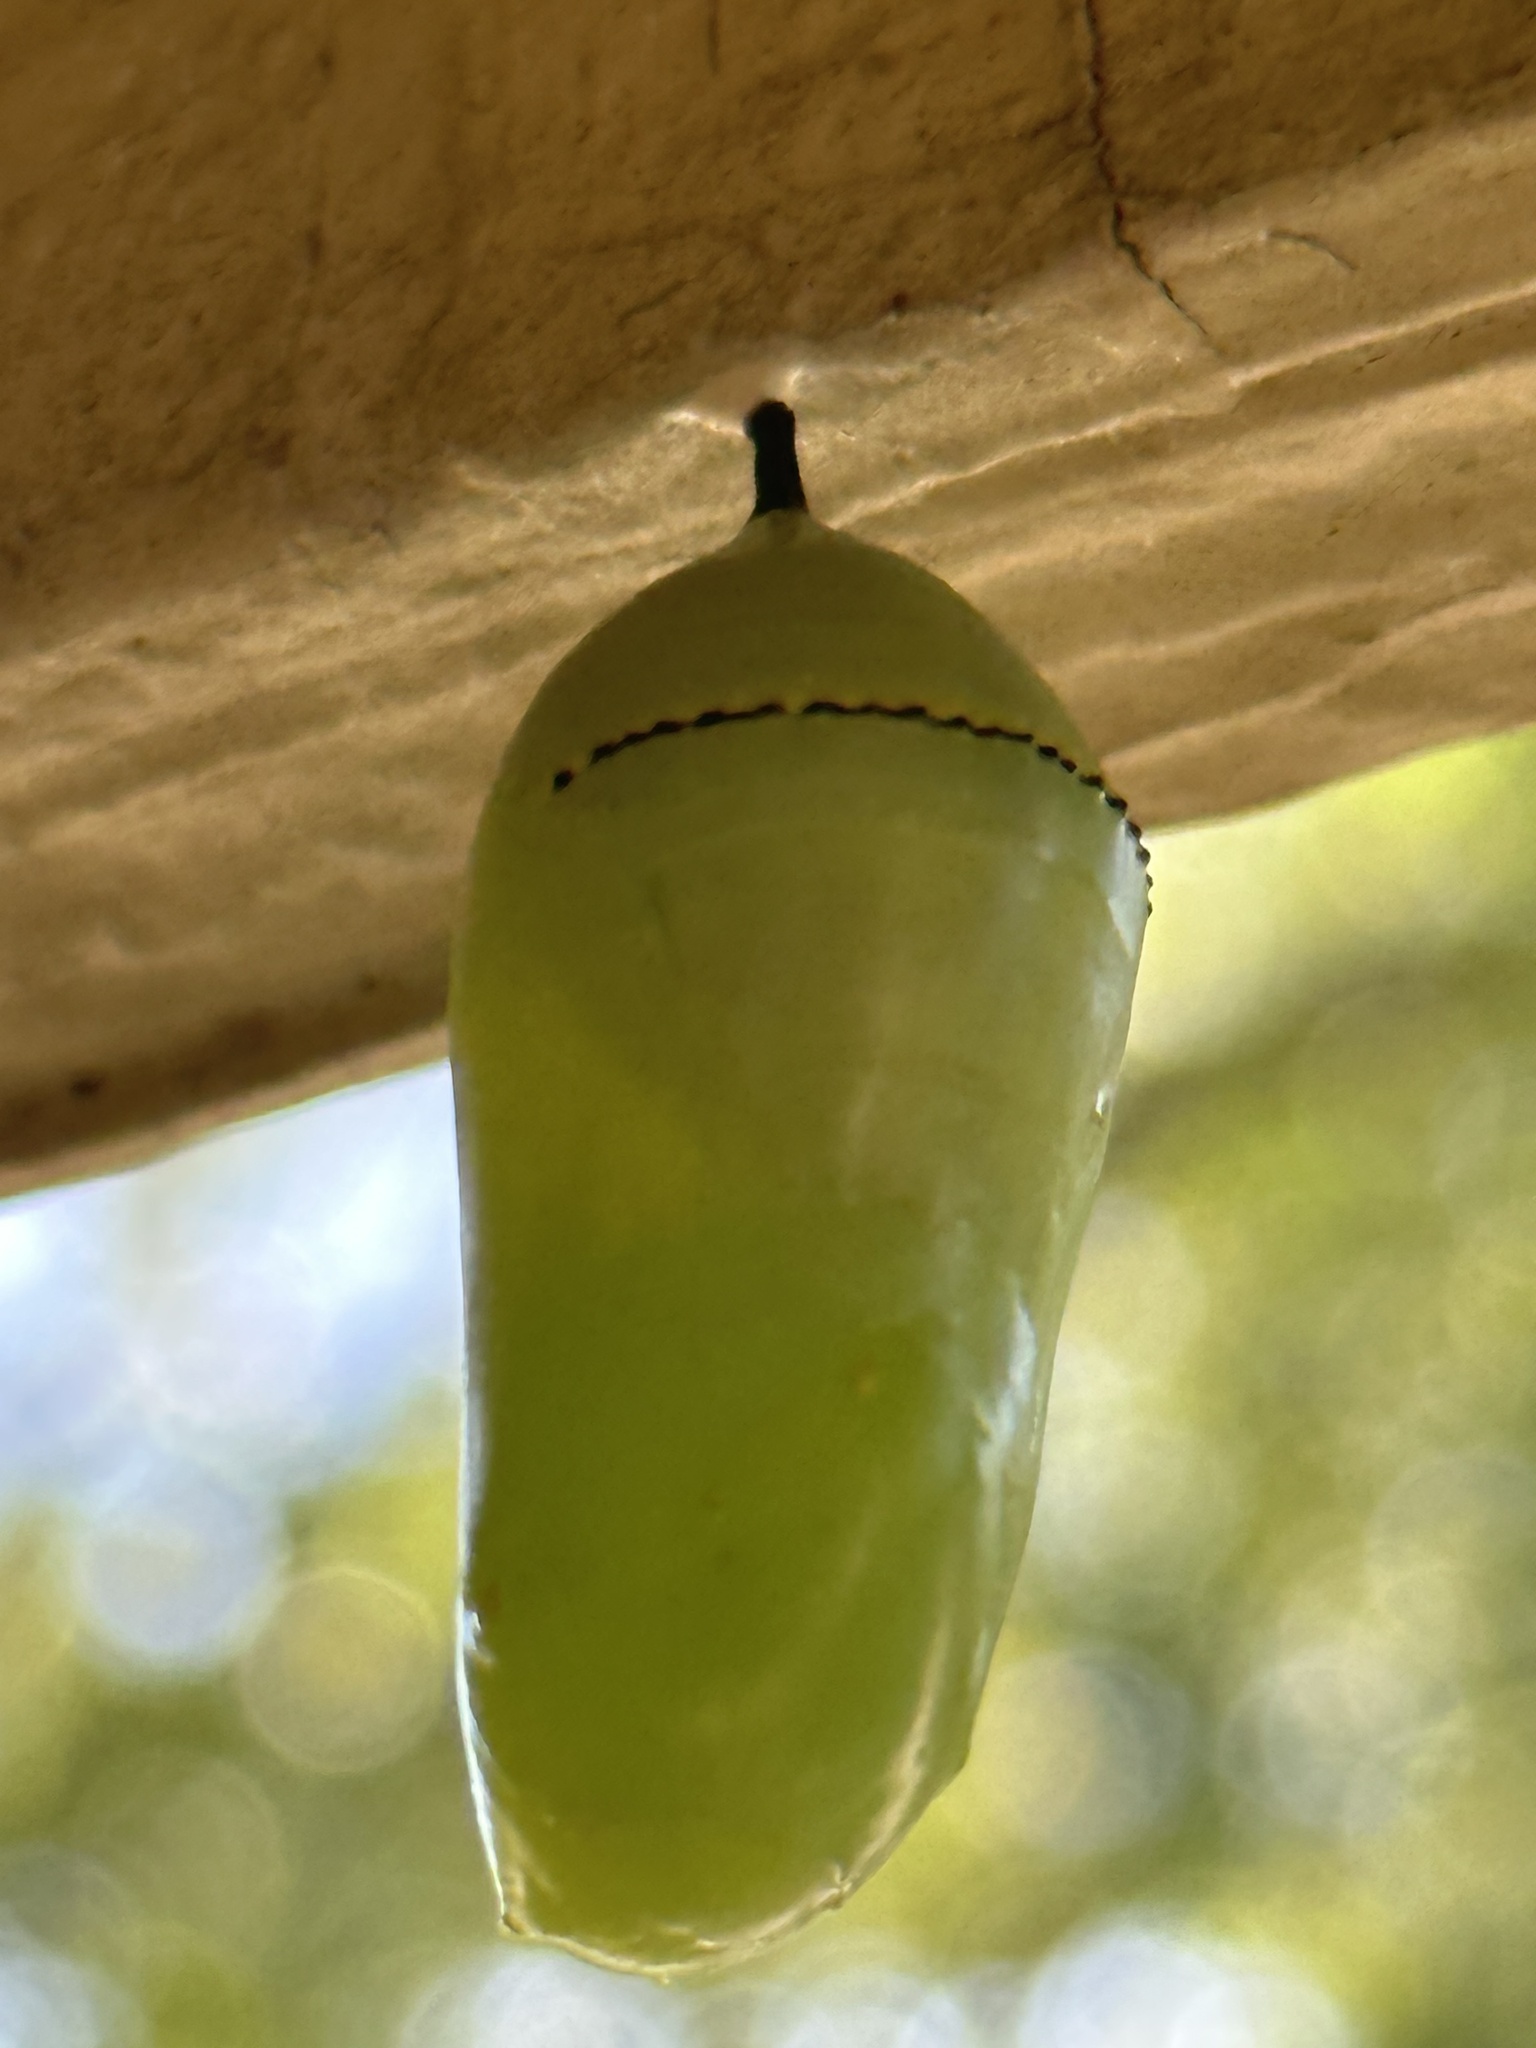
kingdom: Animalia
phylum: Arthropoda
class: Insecta
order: Lepidoptera
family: Nymphalidae
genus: Danaus
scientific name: Danaus plexippus
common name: Monarch
